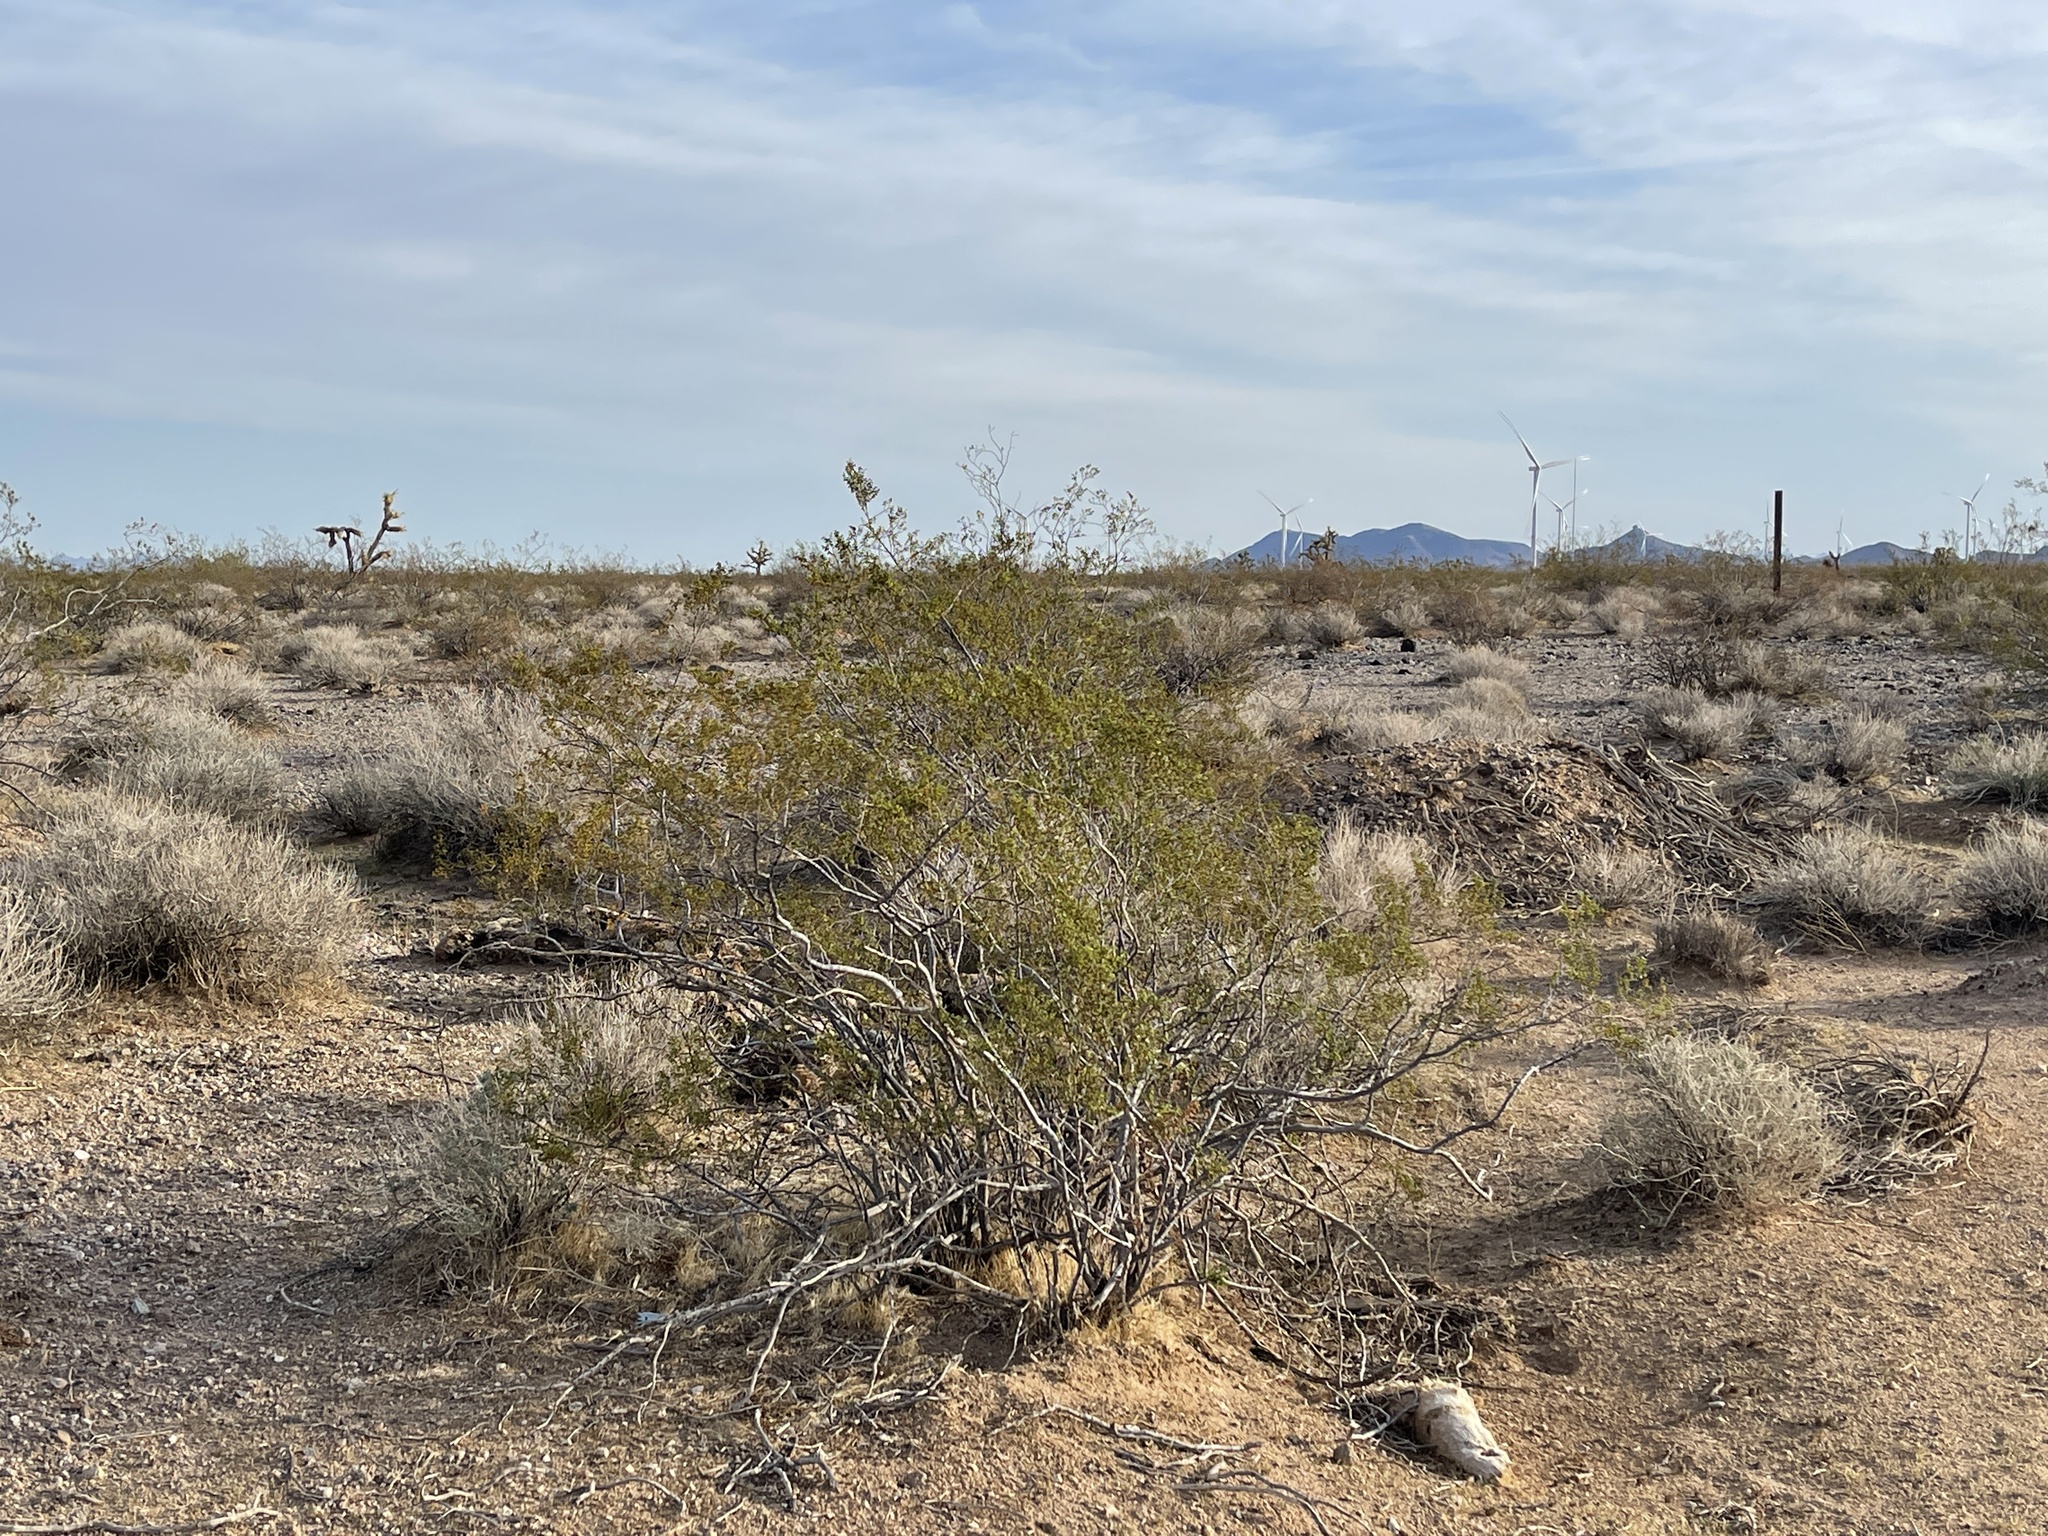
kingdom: Plantae
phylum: Tracheophyta
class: Magnoliopsida
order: Zygophyllales
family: Zygophyllaceae
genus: Larrea
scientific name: Larrea tridentata
